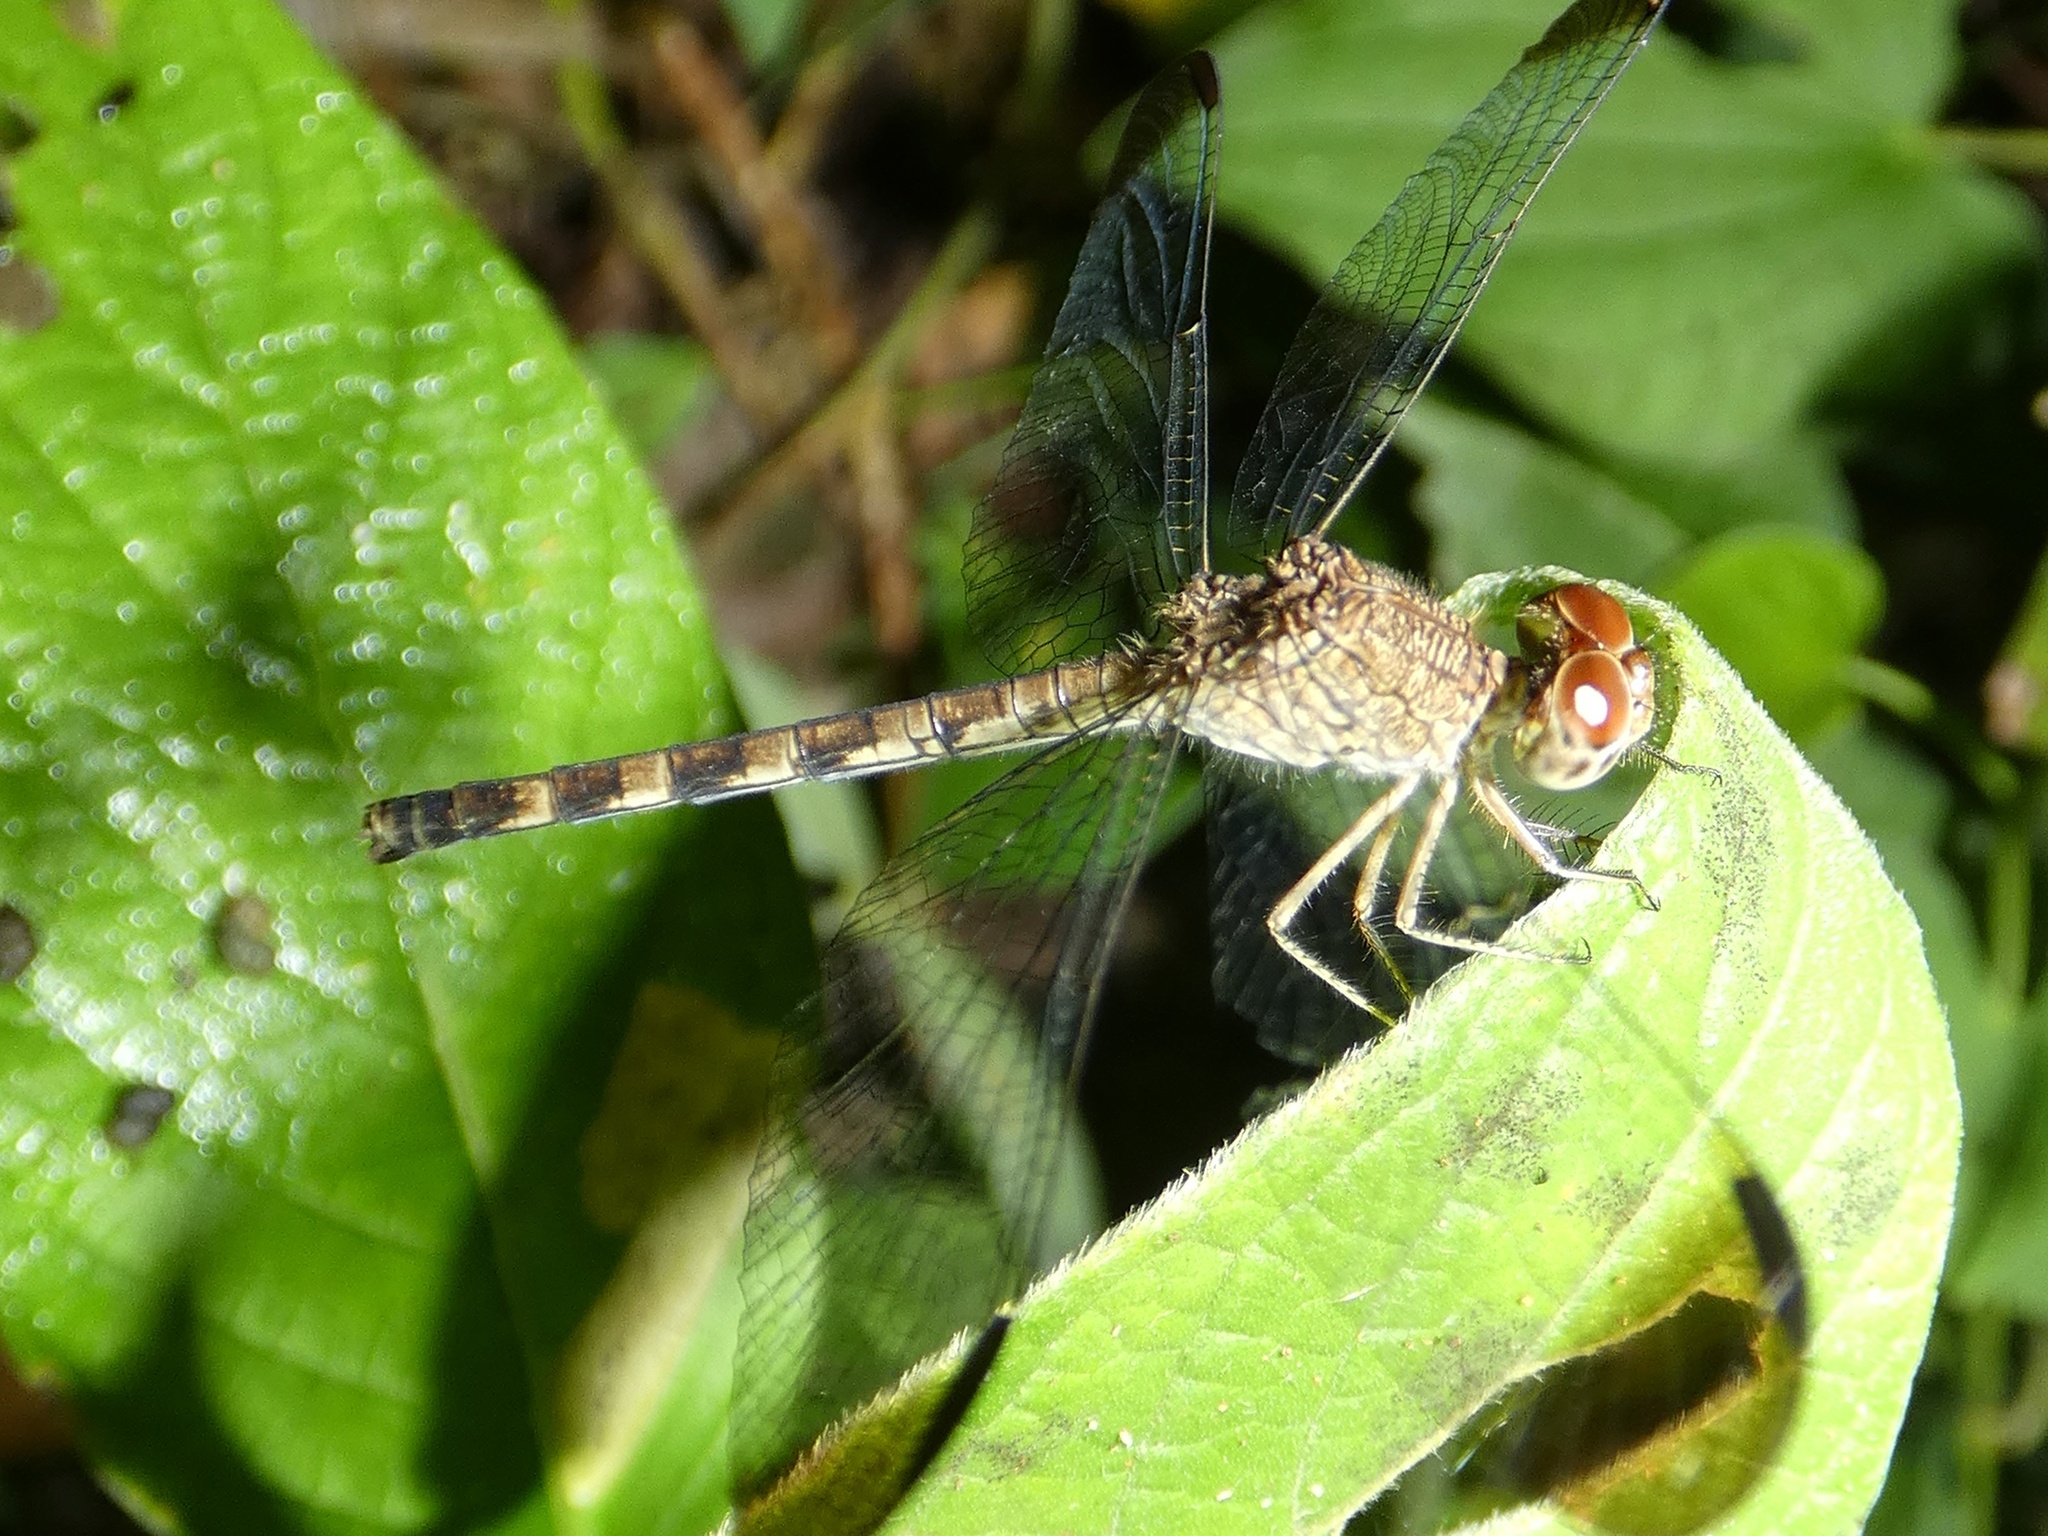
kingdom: Animalia
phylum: Arthropoda
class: Insecta
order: Odonata
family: Libellulidae
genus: Uracis
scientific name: Uracis imbuta
